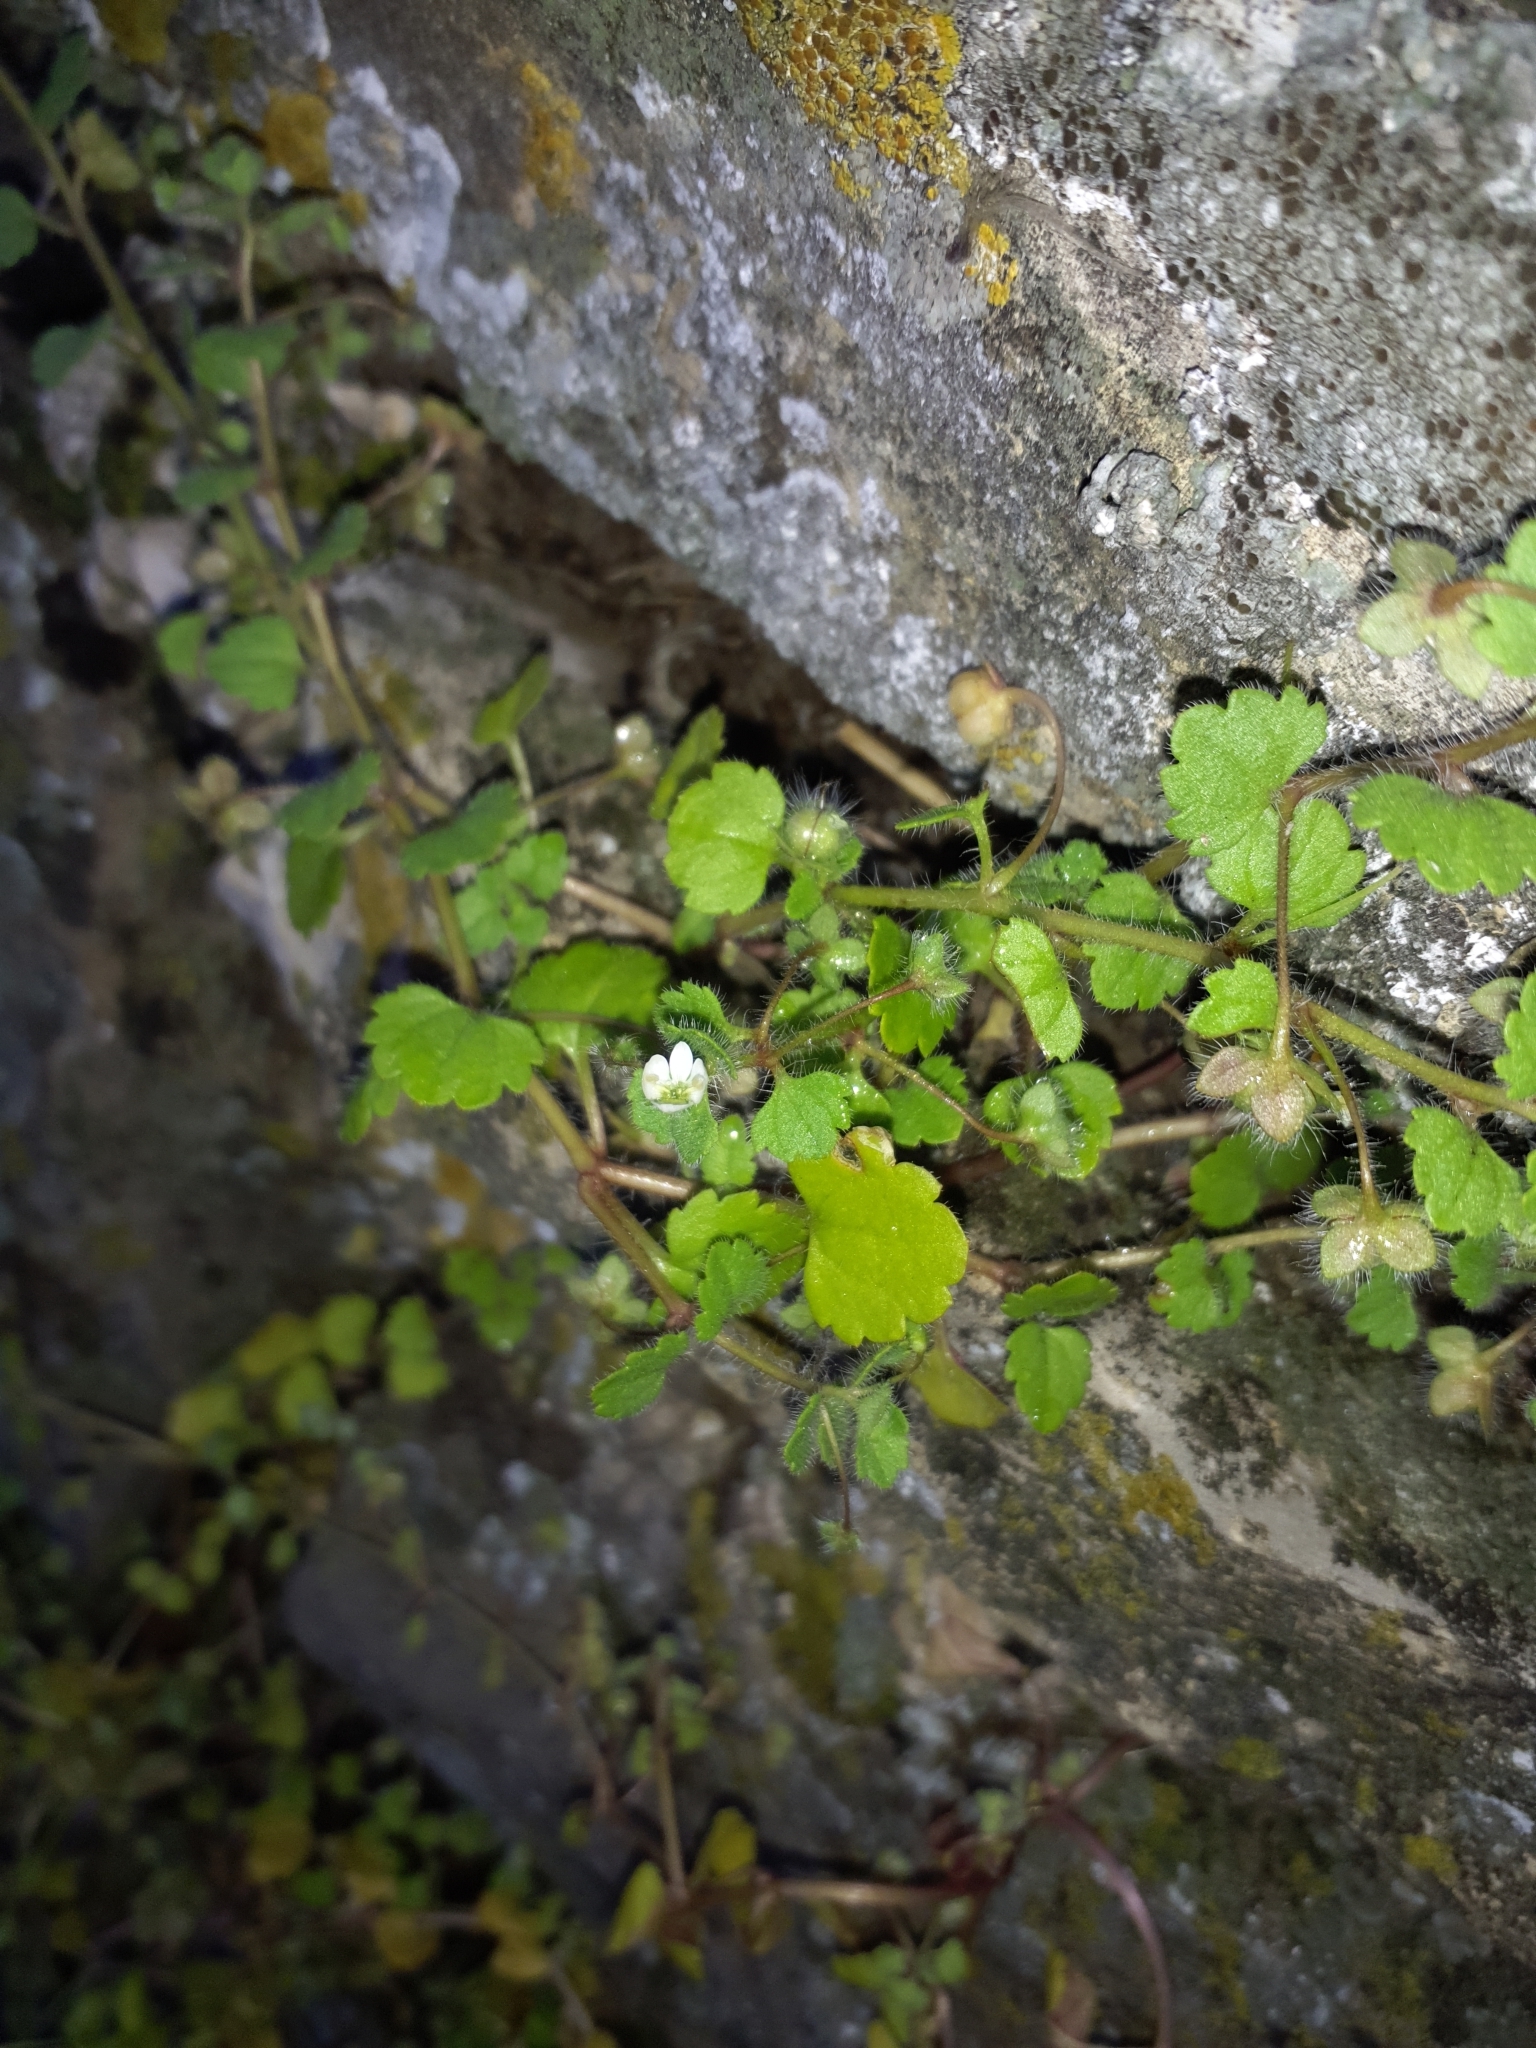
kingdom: Plantae
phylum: Tracheophyta
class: Magnoliopsida
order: Lamiales
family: Plantaginaceae
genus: Veronica
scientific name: Veronica cymbalaria
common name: Pale speedwell
